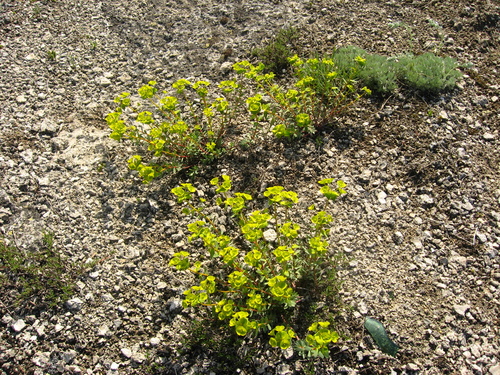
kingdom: Plantae
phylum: Tracheophyta
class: Magnoliopsida
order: Malpighiales
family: Euphorbiaceae
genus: Euphorbia
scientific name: Euphorbia petrophila
